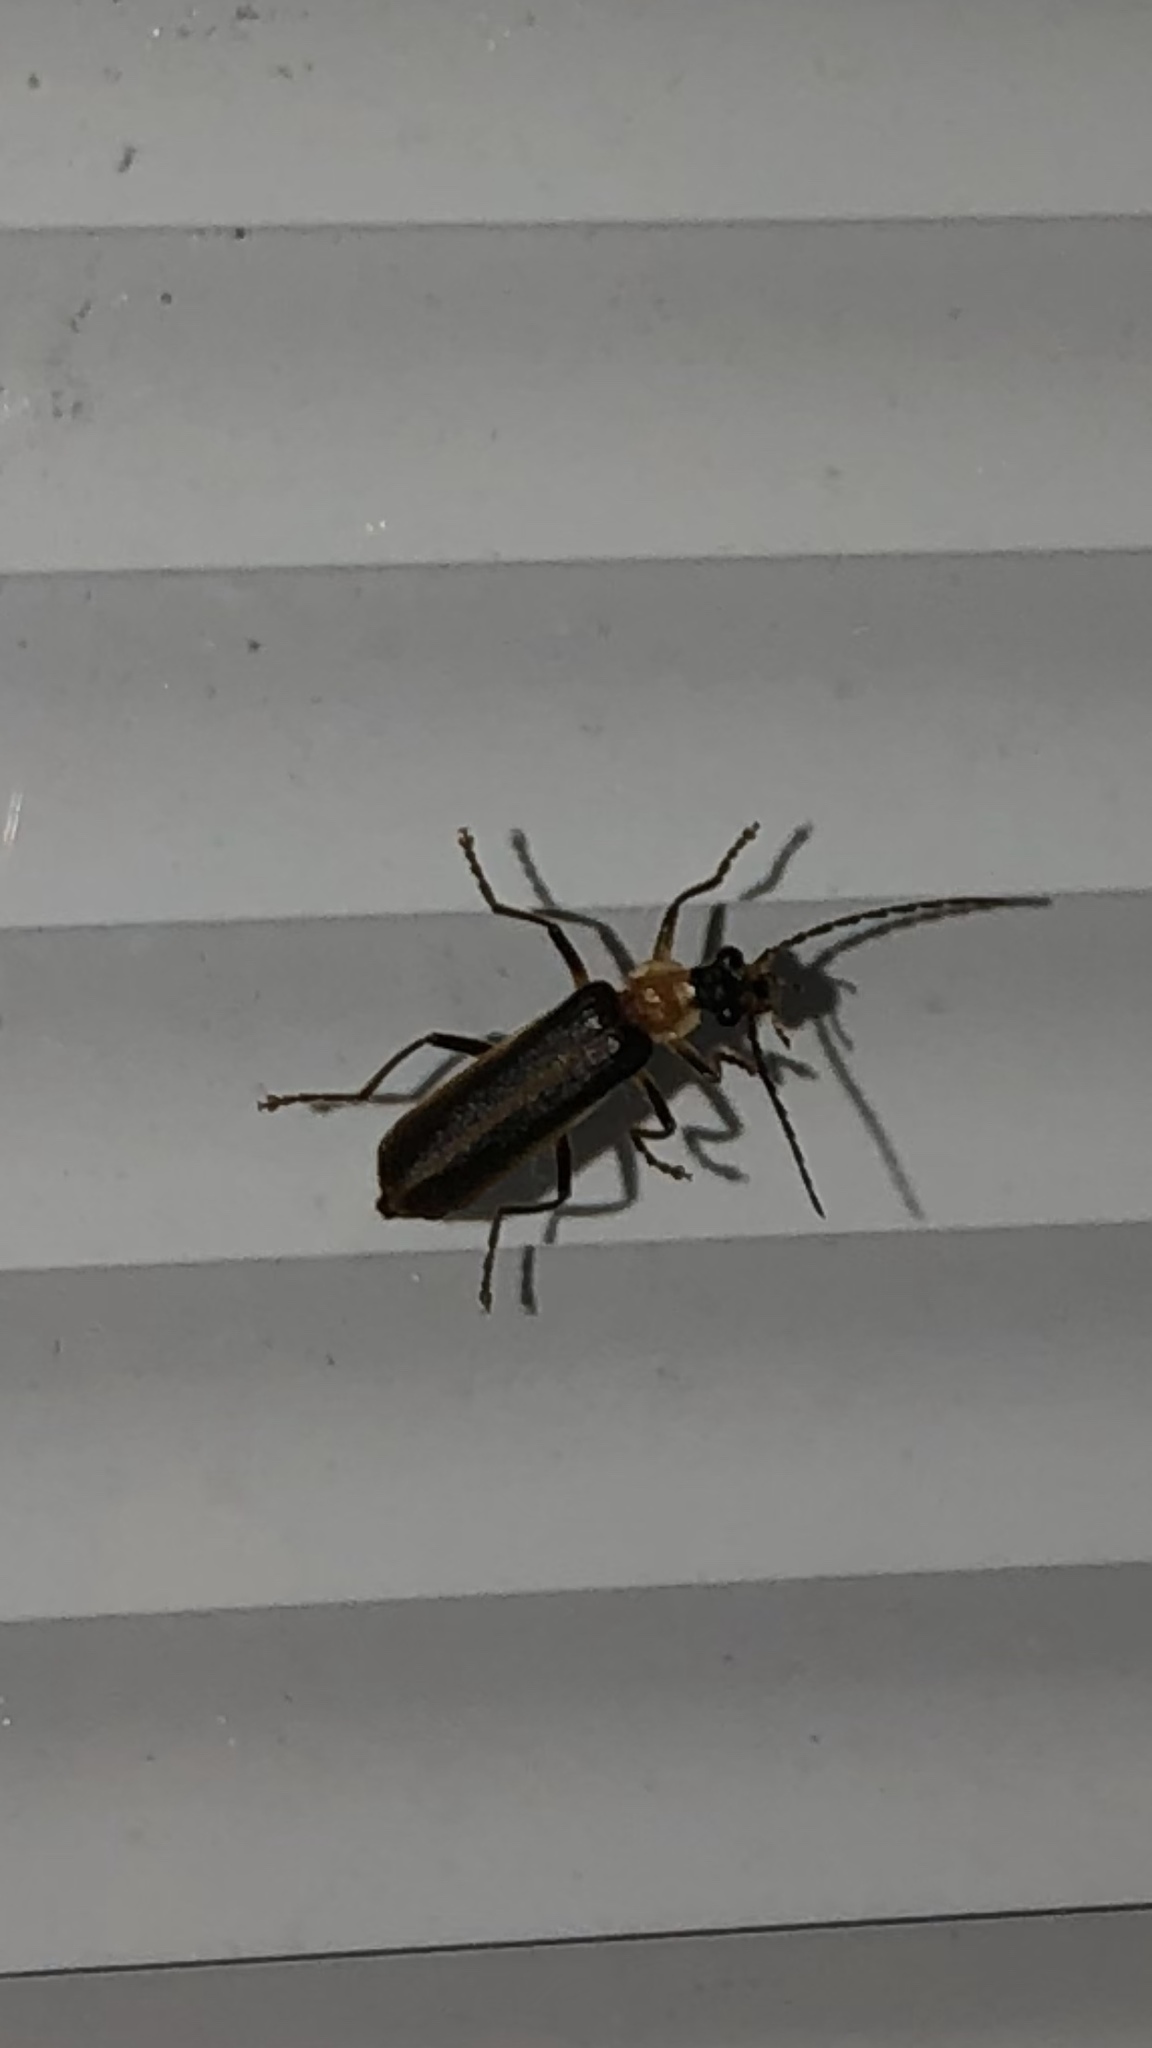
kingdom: Animalia
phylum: Arthropoda
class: Insecta
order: Coleoptera
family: Cantharidae
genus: Podabrus
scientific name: Podabrus flavicollis
